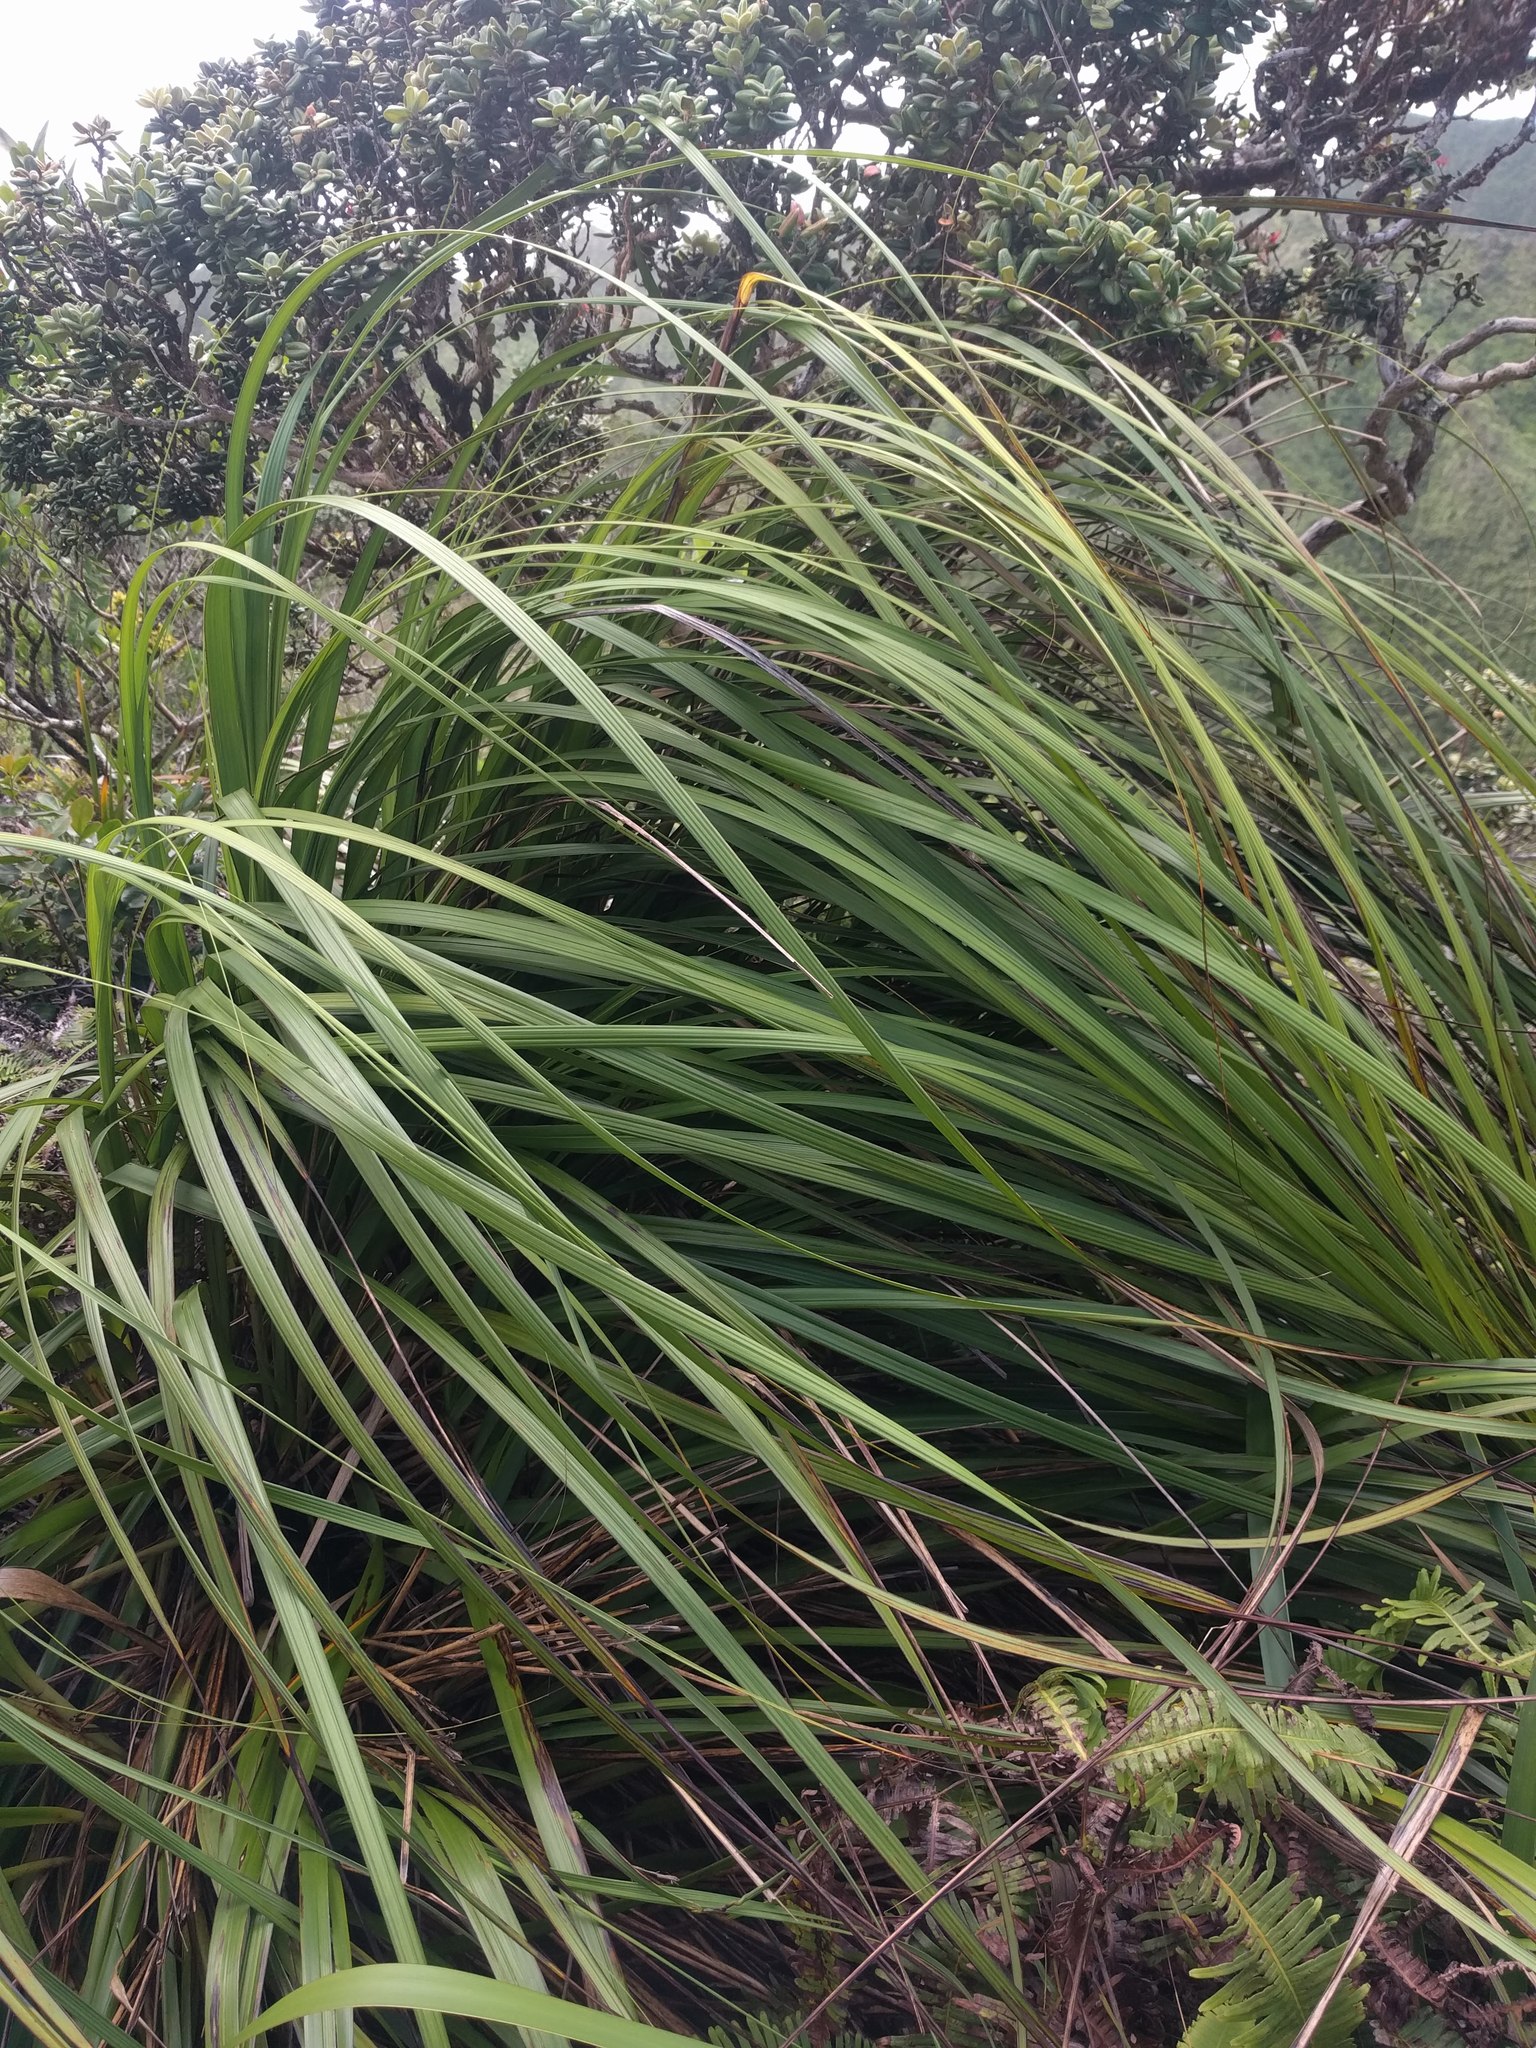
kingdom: Plantae
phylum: Tracheophyta
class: Liliopsida
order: Poales
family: Cyperaceae
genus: Gahnia
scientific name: Gahnia beecheyi
